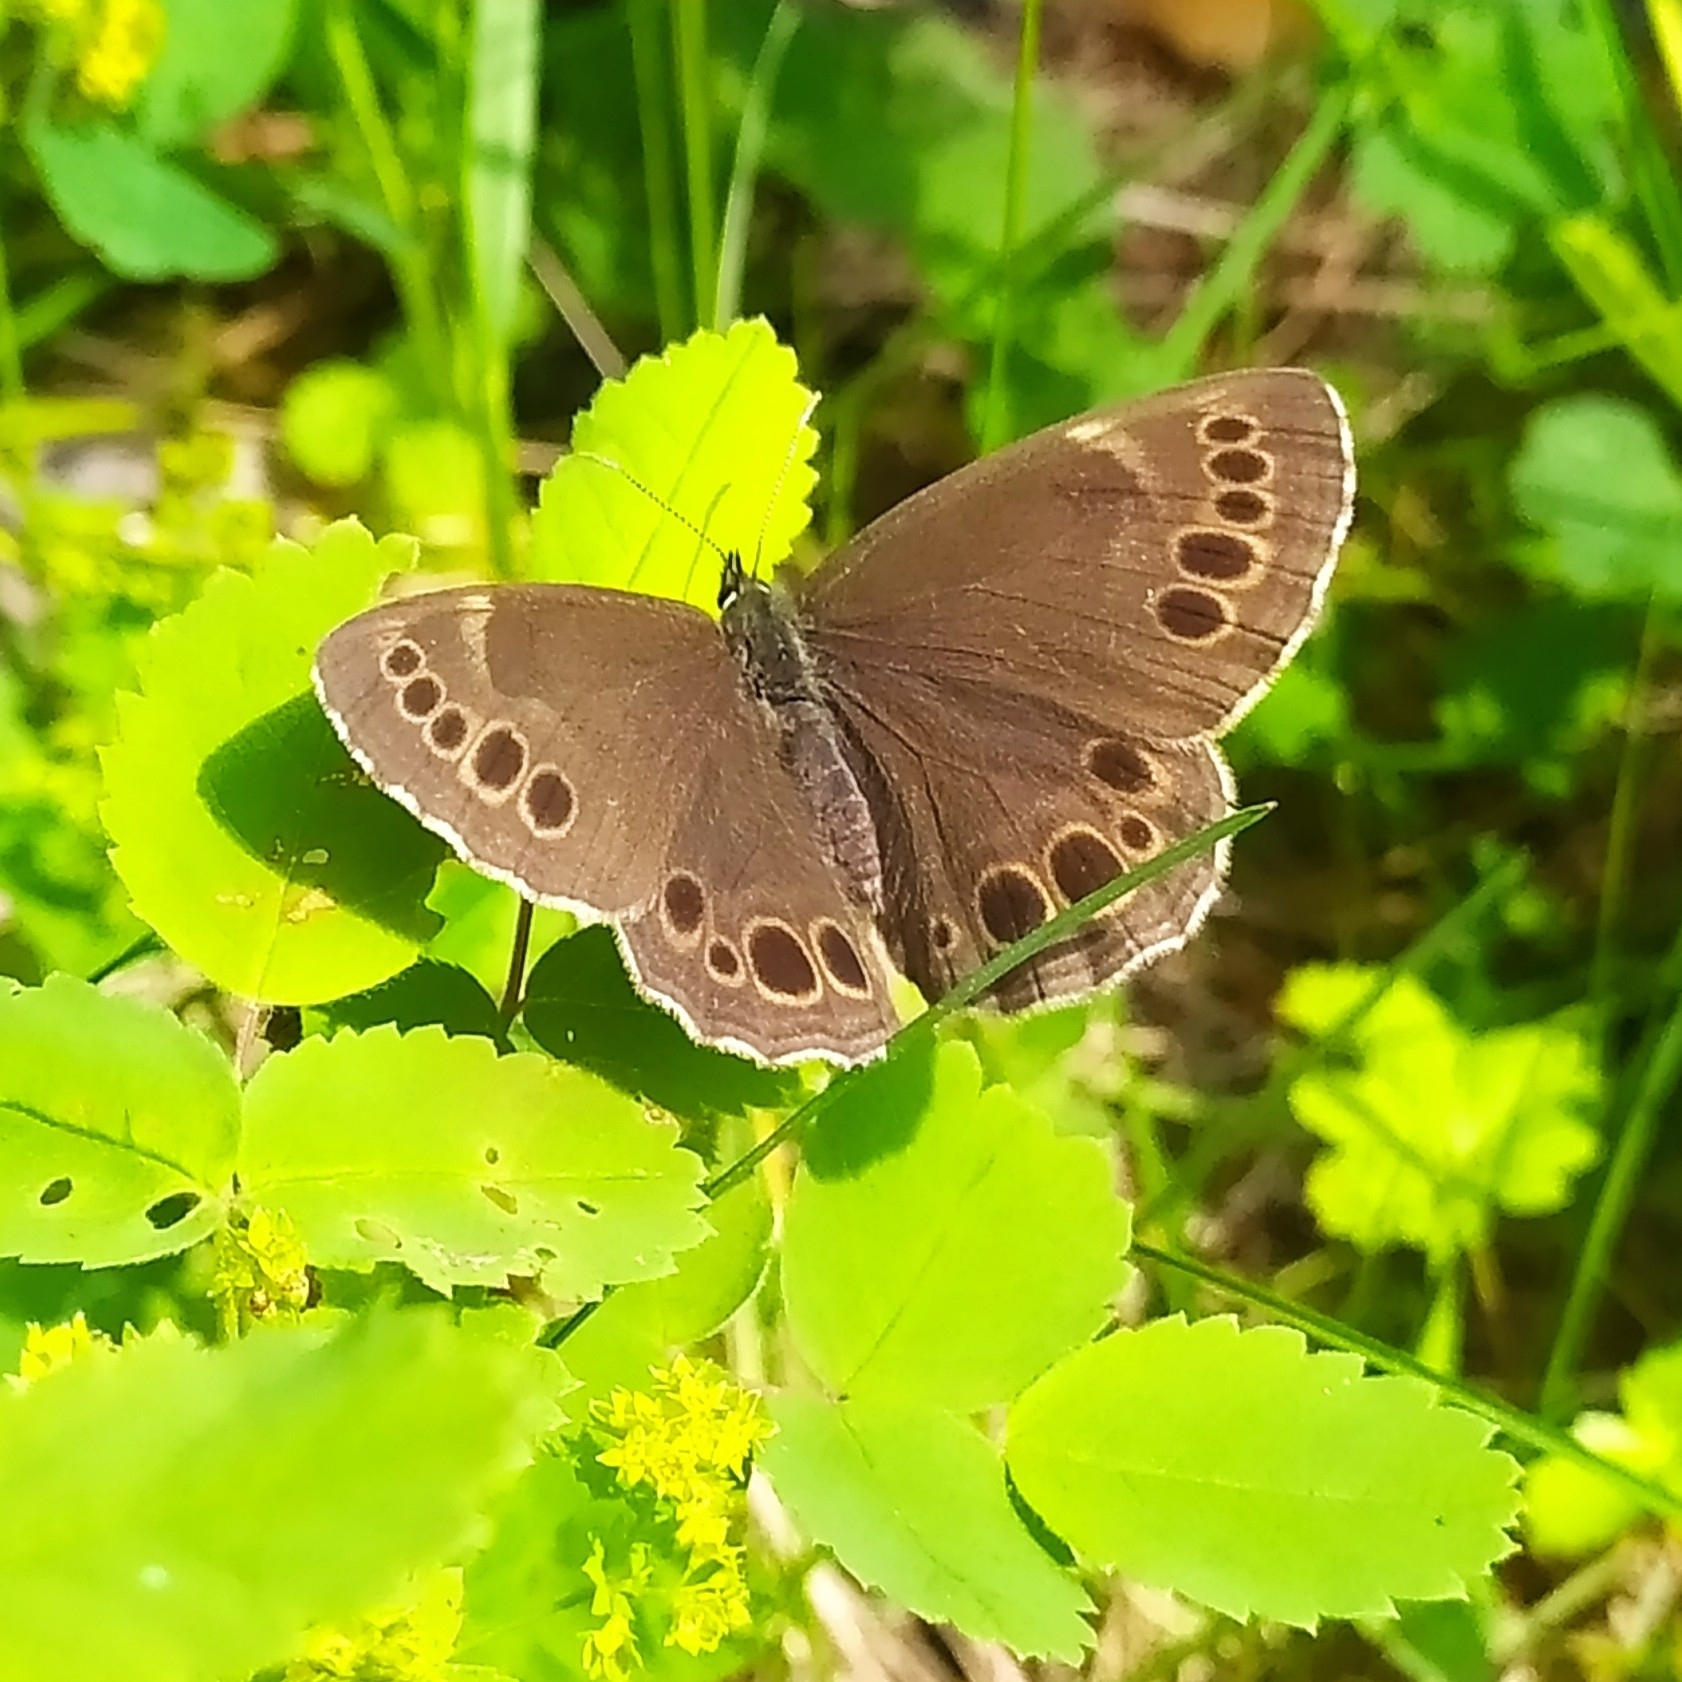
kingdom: Animalia
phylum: Arthropoda
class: Insecta
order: Lepidoptera
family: Nymphalidae
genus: Pararge
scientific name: Pararge Lopinga achine
